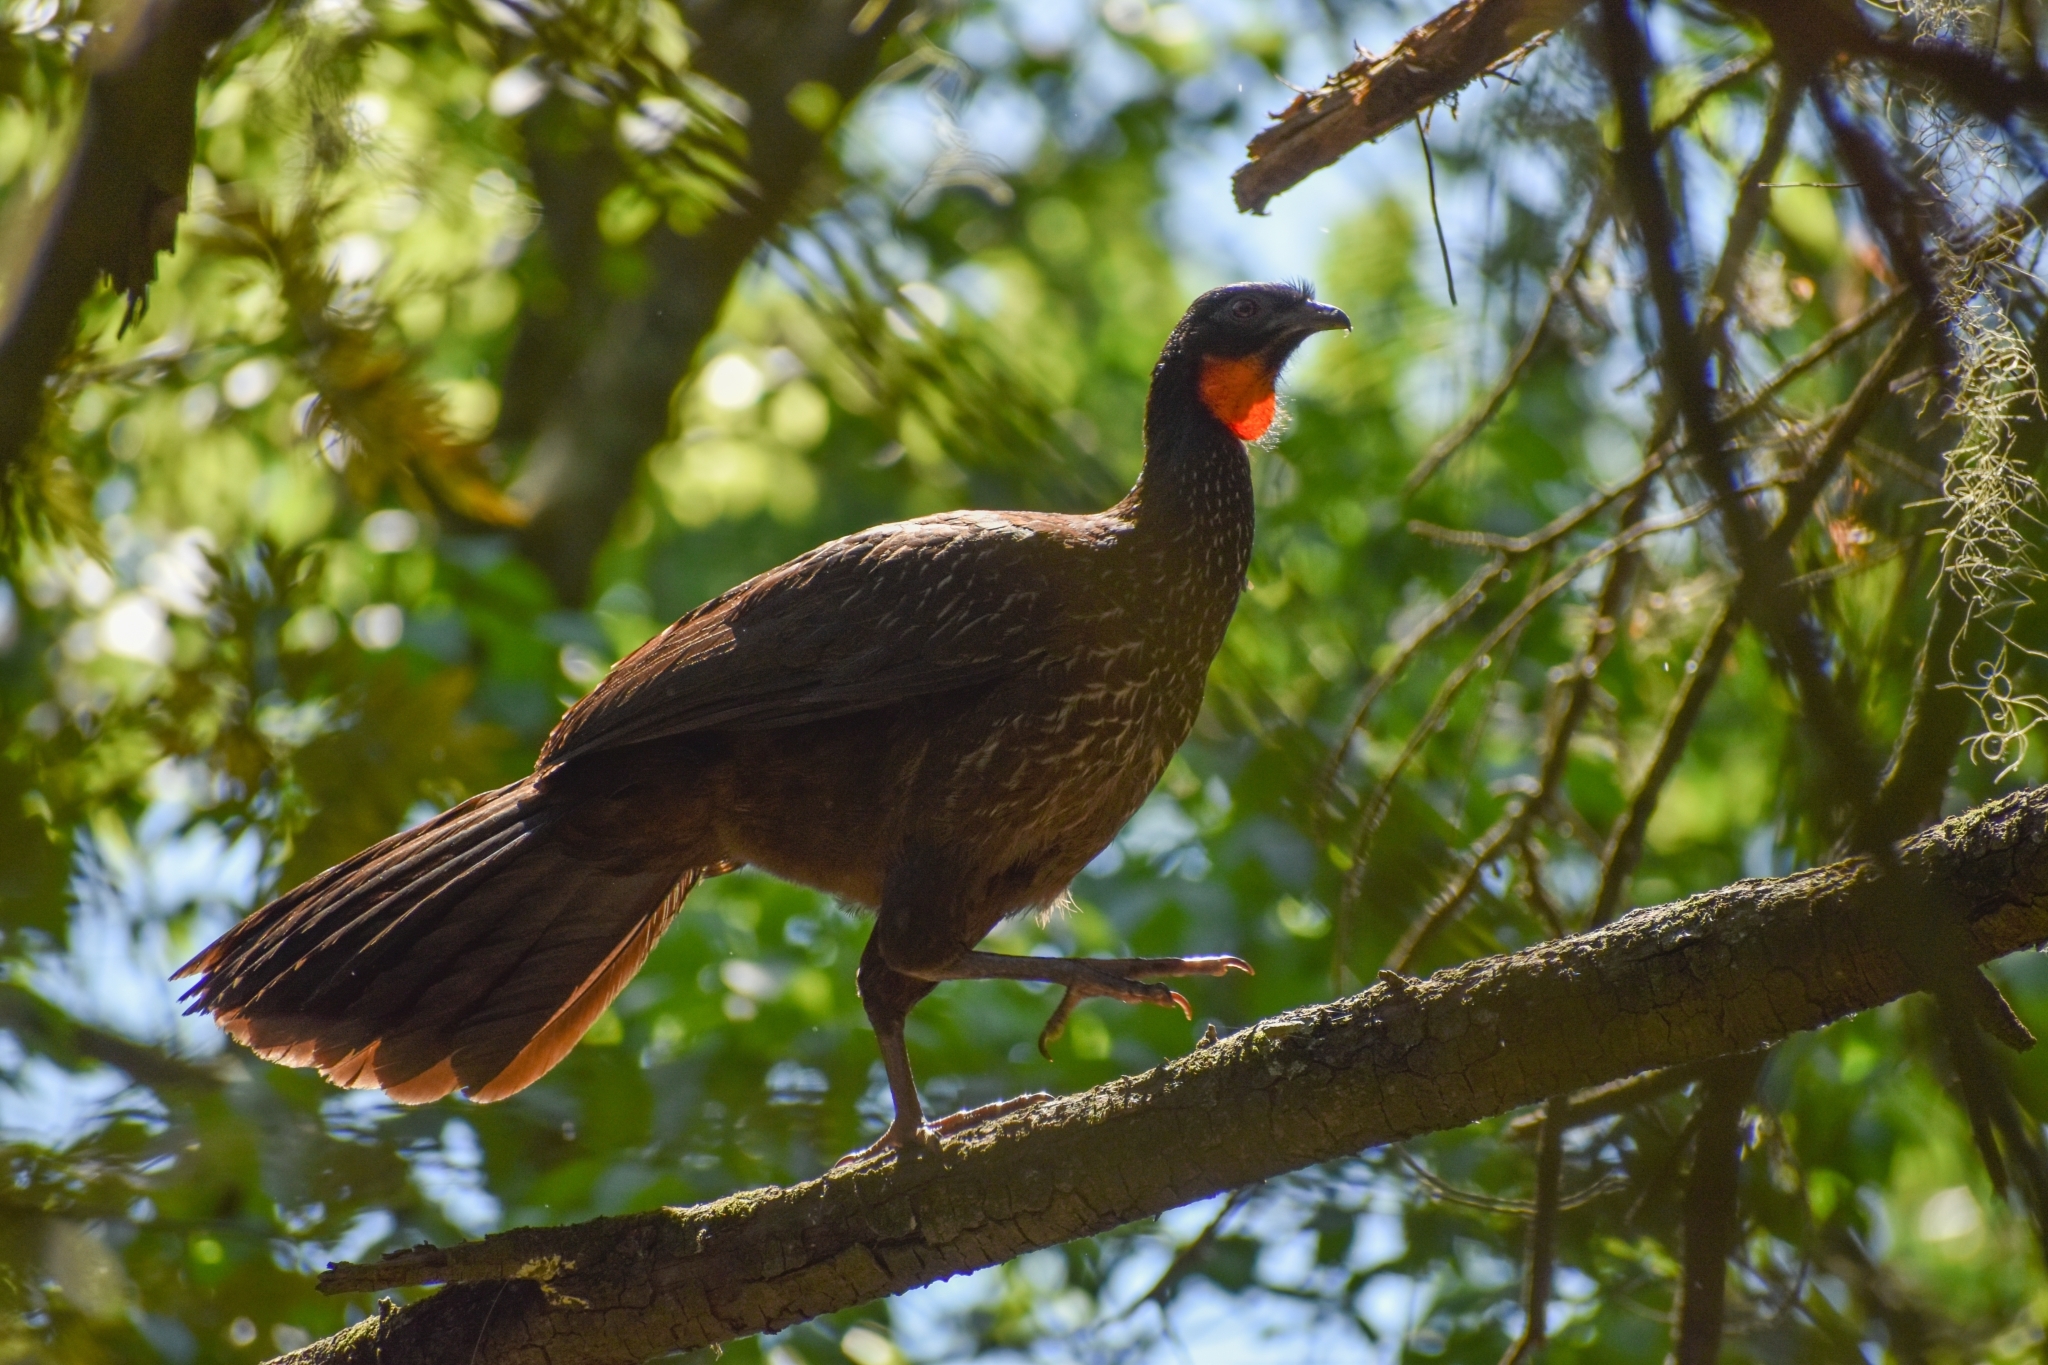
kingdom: Animalia
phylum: Chordata
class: Aves
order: Galliformes
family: Cracidae
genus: Penelope
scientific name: Penelope obscura
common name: Dusky-legged guan
